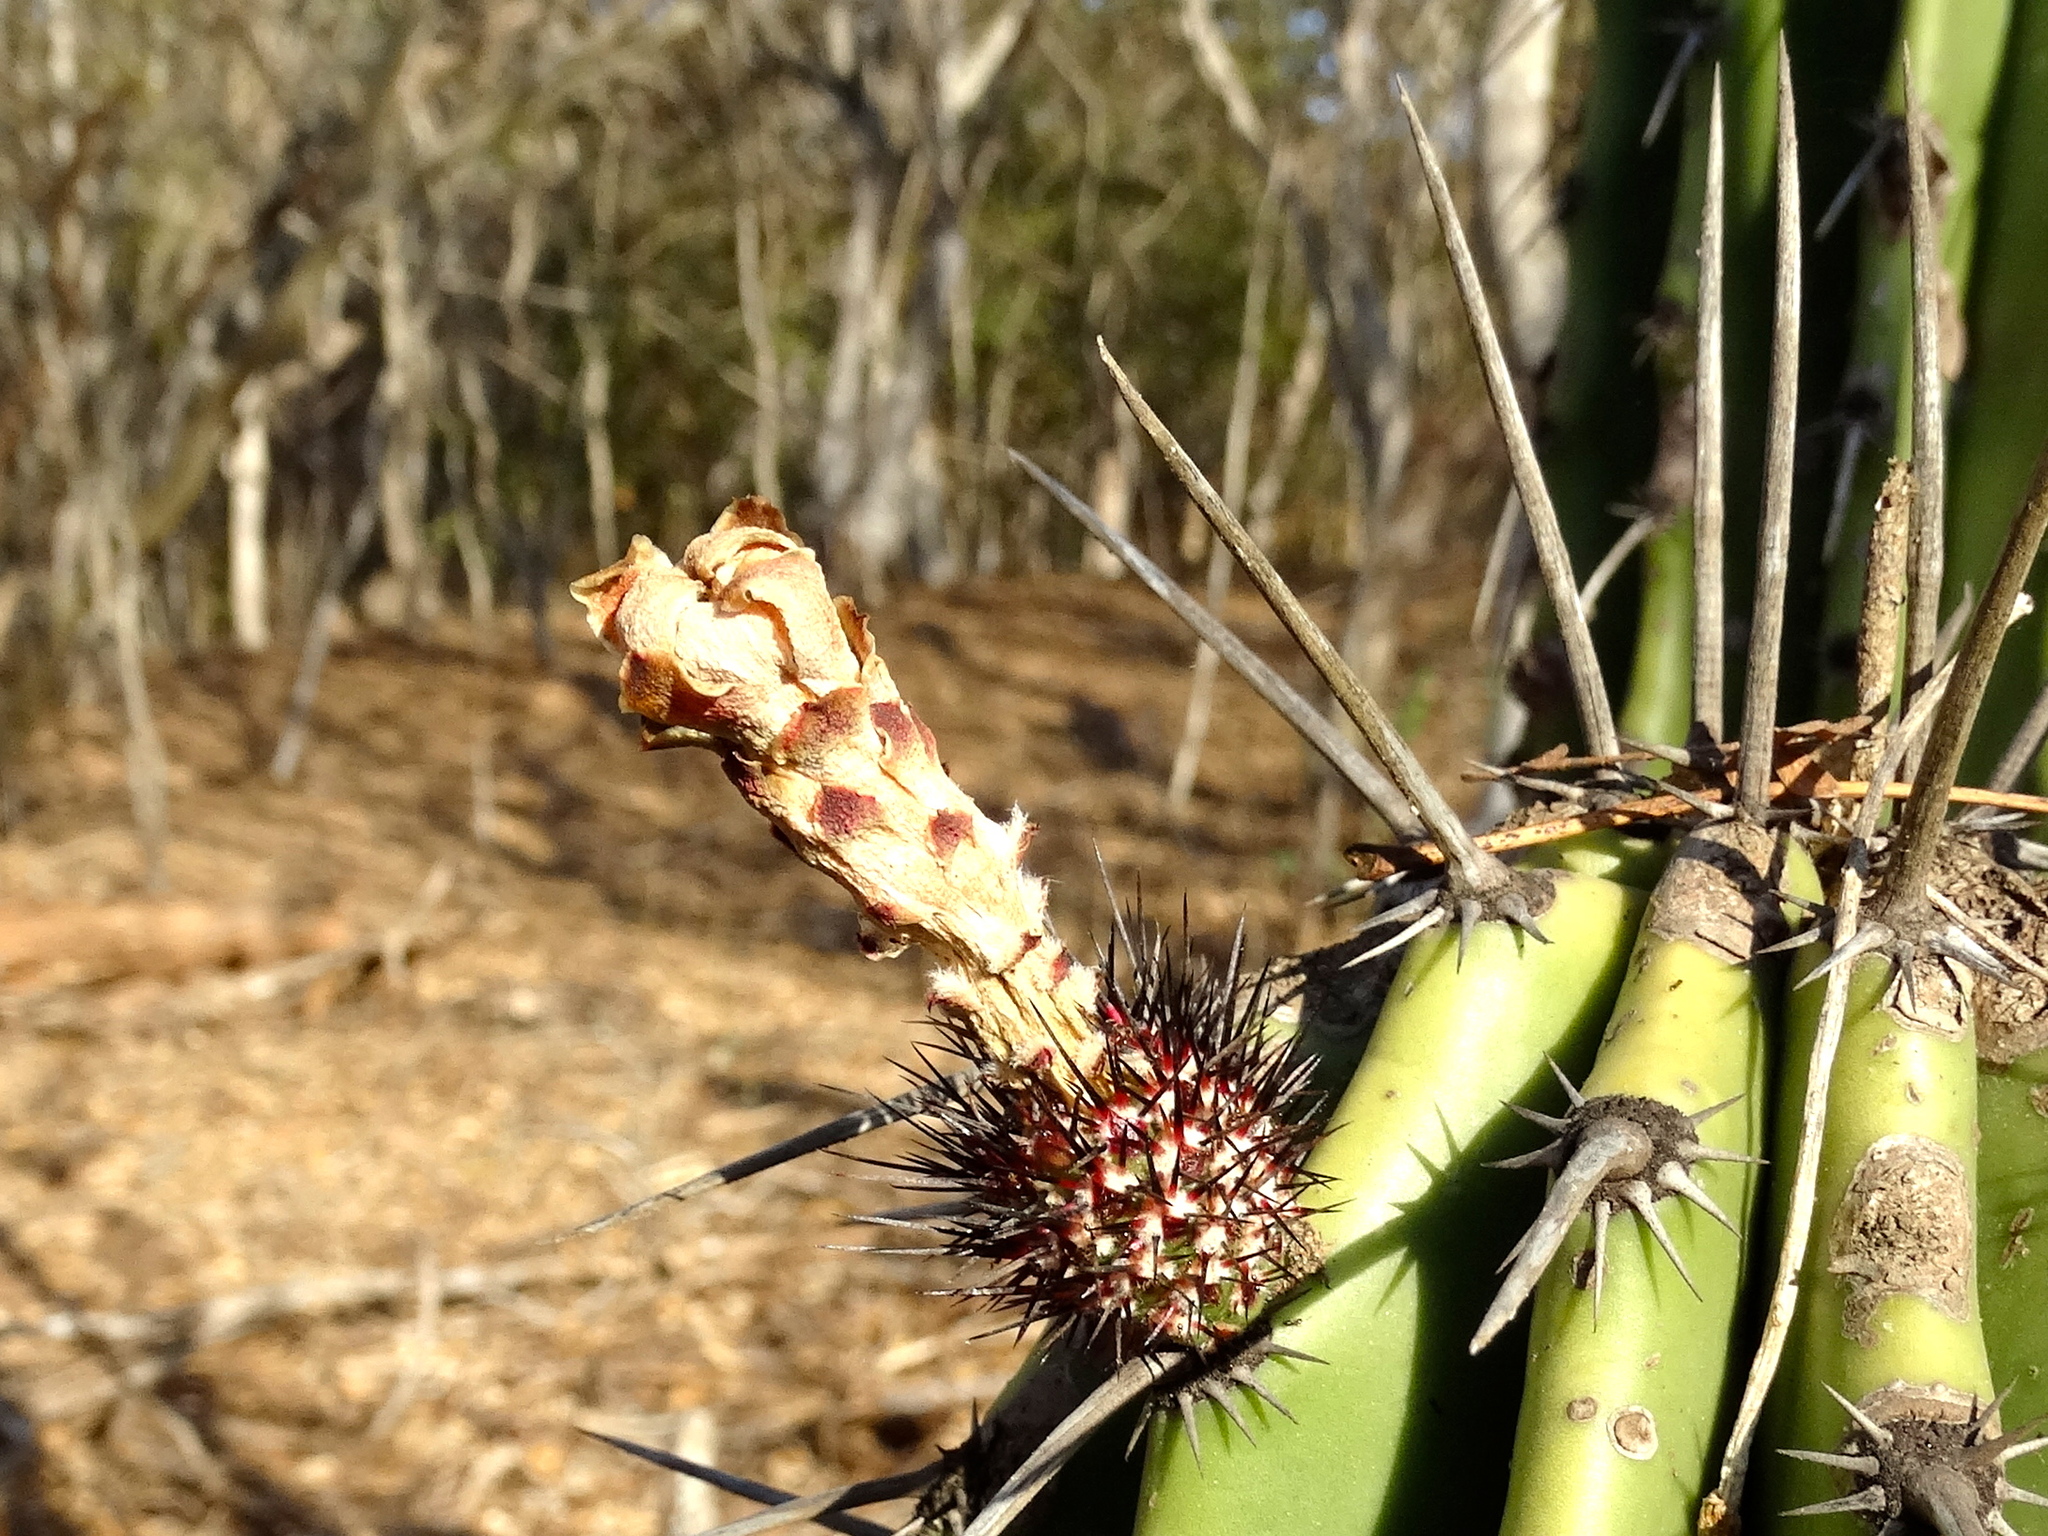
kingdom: Plantae
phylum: Tracheophyta
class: Magnoliopsida
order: Caryophyllales
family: Cactaceae
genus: Stenocereus
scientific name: Stenocereus martinezii
